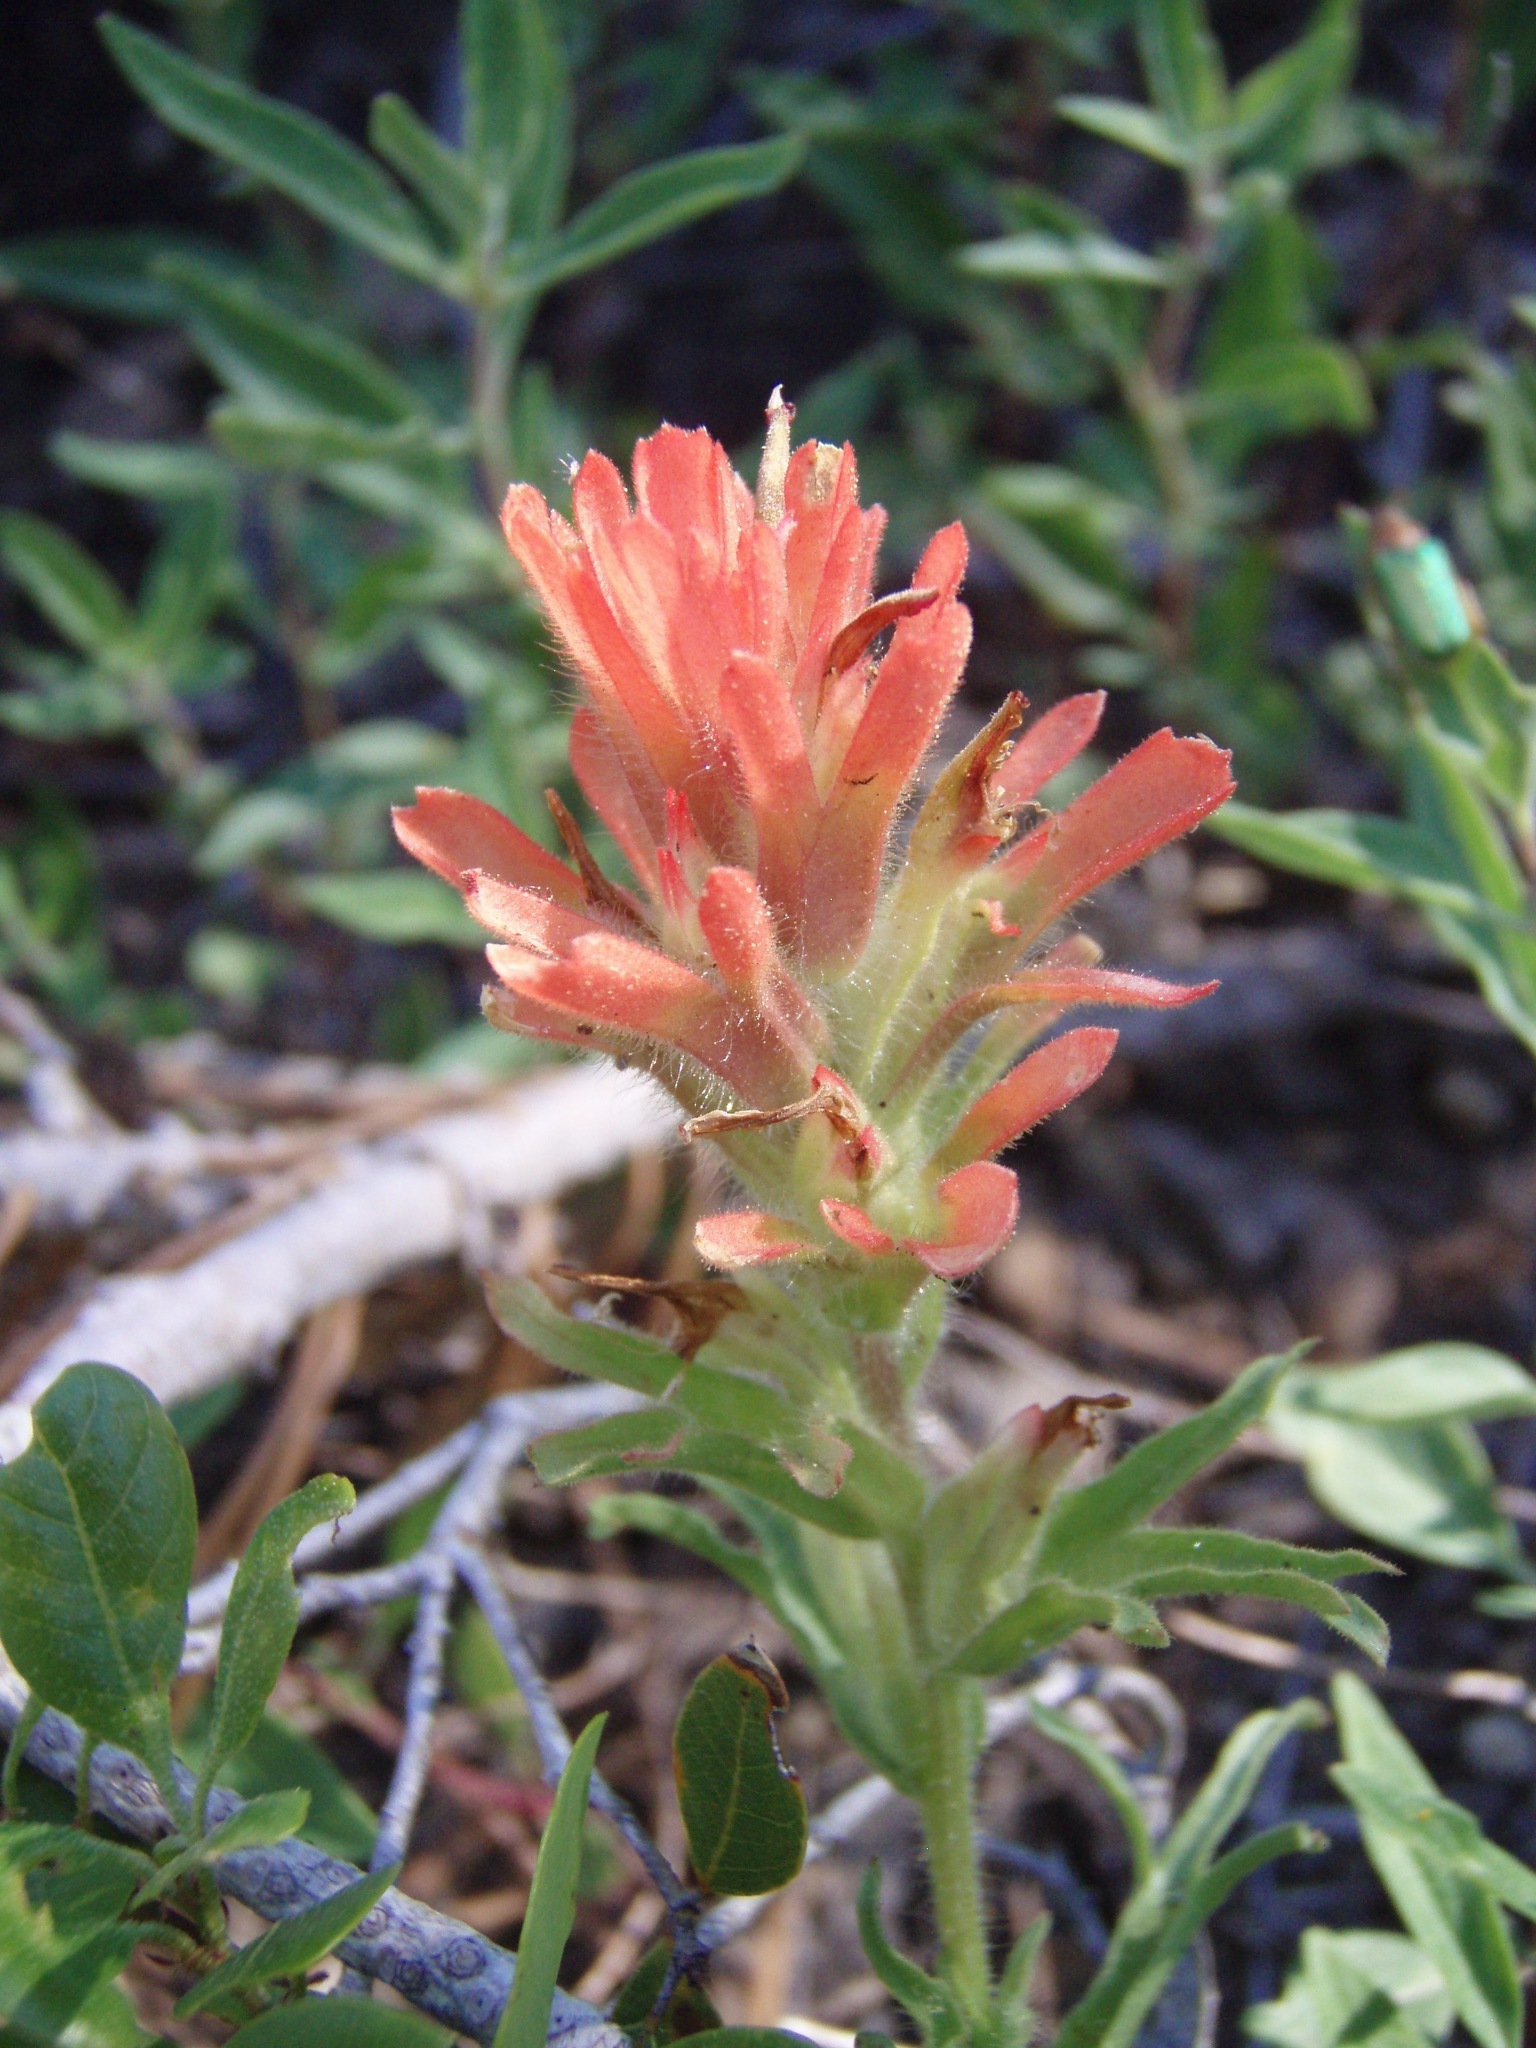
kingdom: Plantae
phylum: Tracheophyta
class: Magnoliopsida
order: Lamiales
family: Orobanchaceae
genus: Castilleja
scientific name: Castilleja applegatei
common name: Wavy-leaf paintbrush
